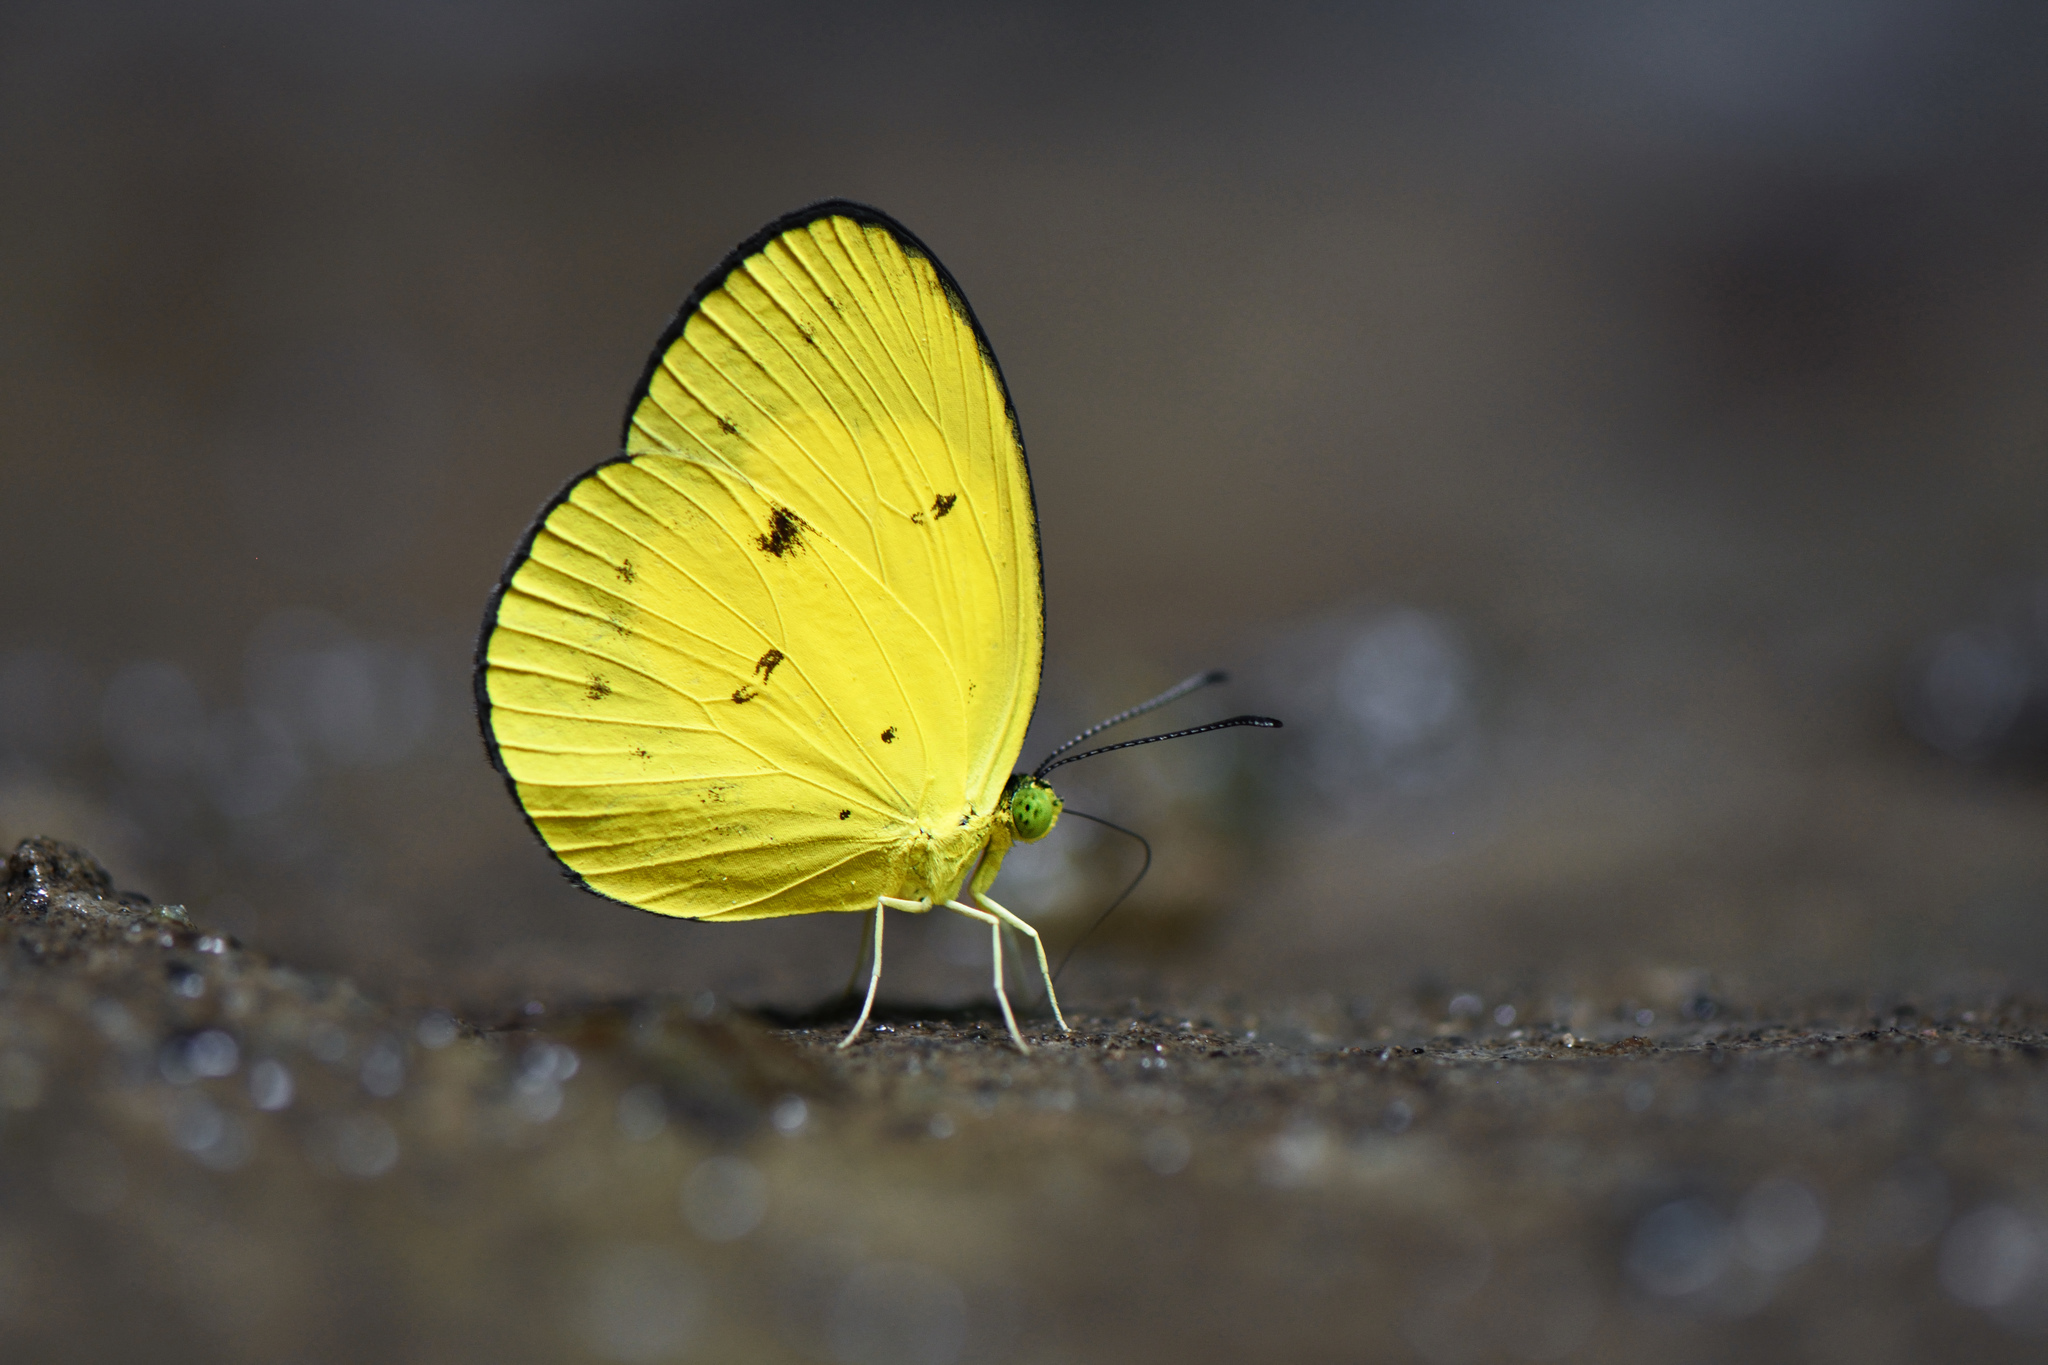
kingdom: Animalia
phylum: Arthropoda
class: Insecta
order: Lepidoptera
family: Pieridae
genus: Eurema
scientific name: Eurema celebensis
